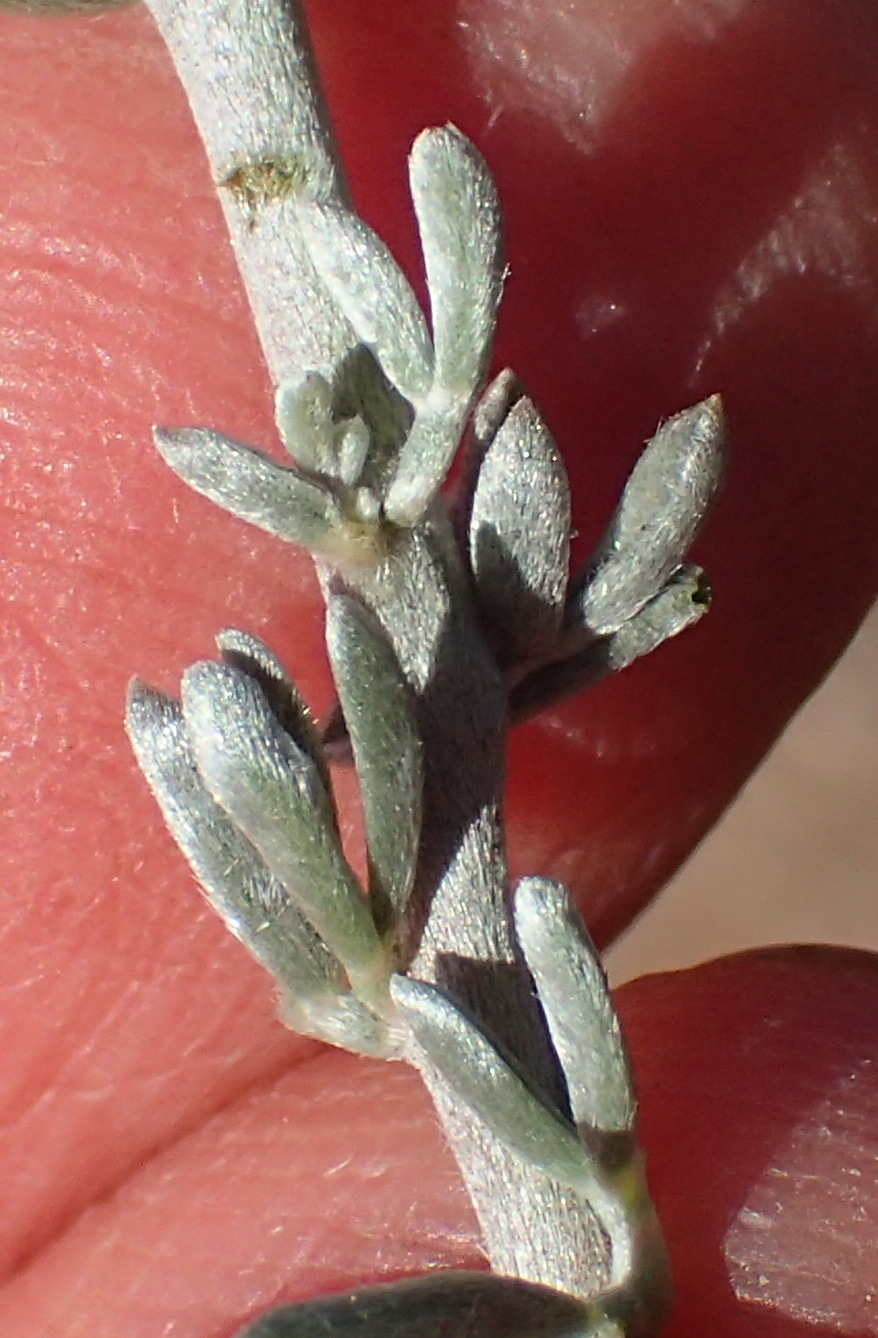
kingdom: Plantae
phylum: Tracheophyta
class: Magnoliopsida
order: Fabales
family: Fabaceae
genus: Lotononis
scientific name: Lotononis dahlgrenii
